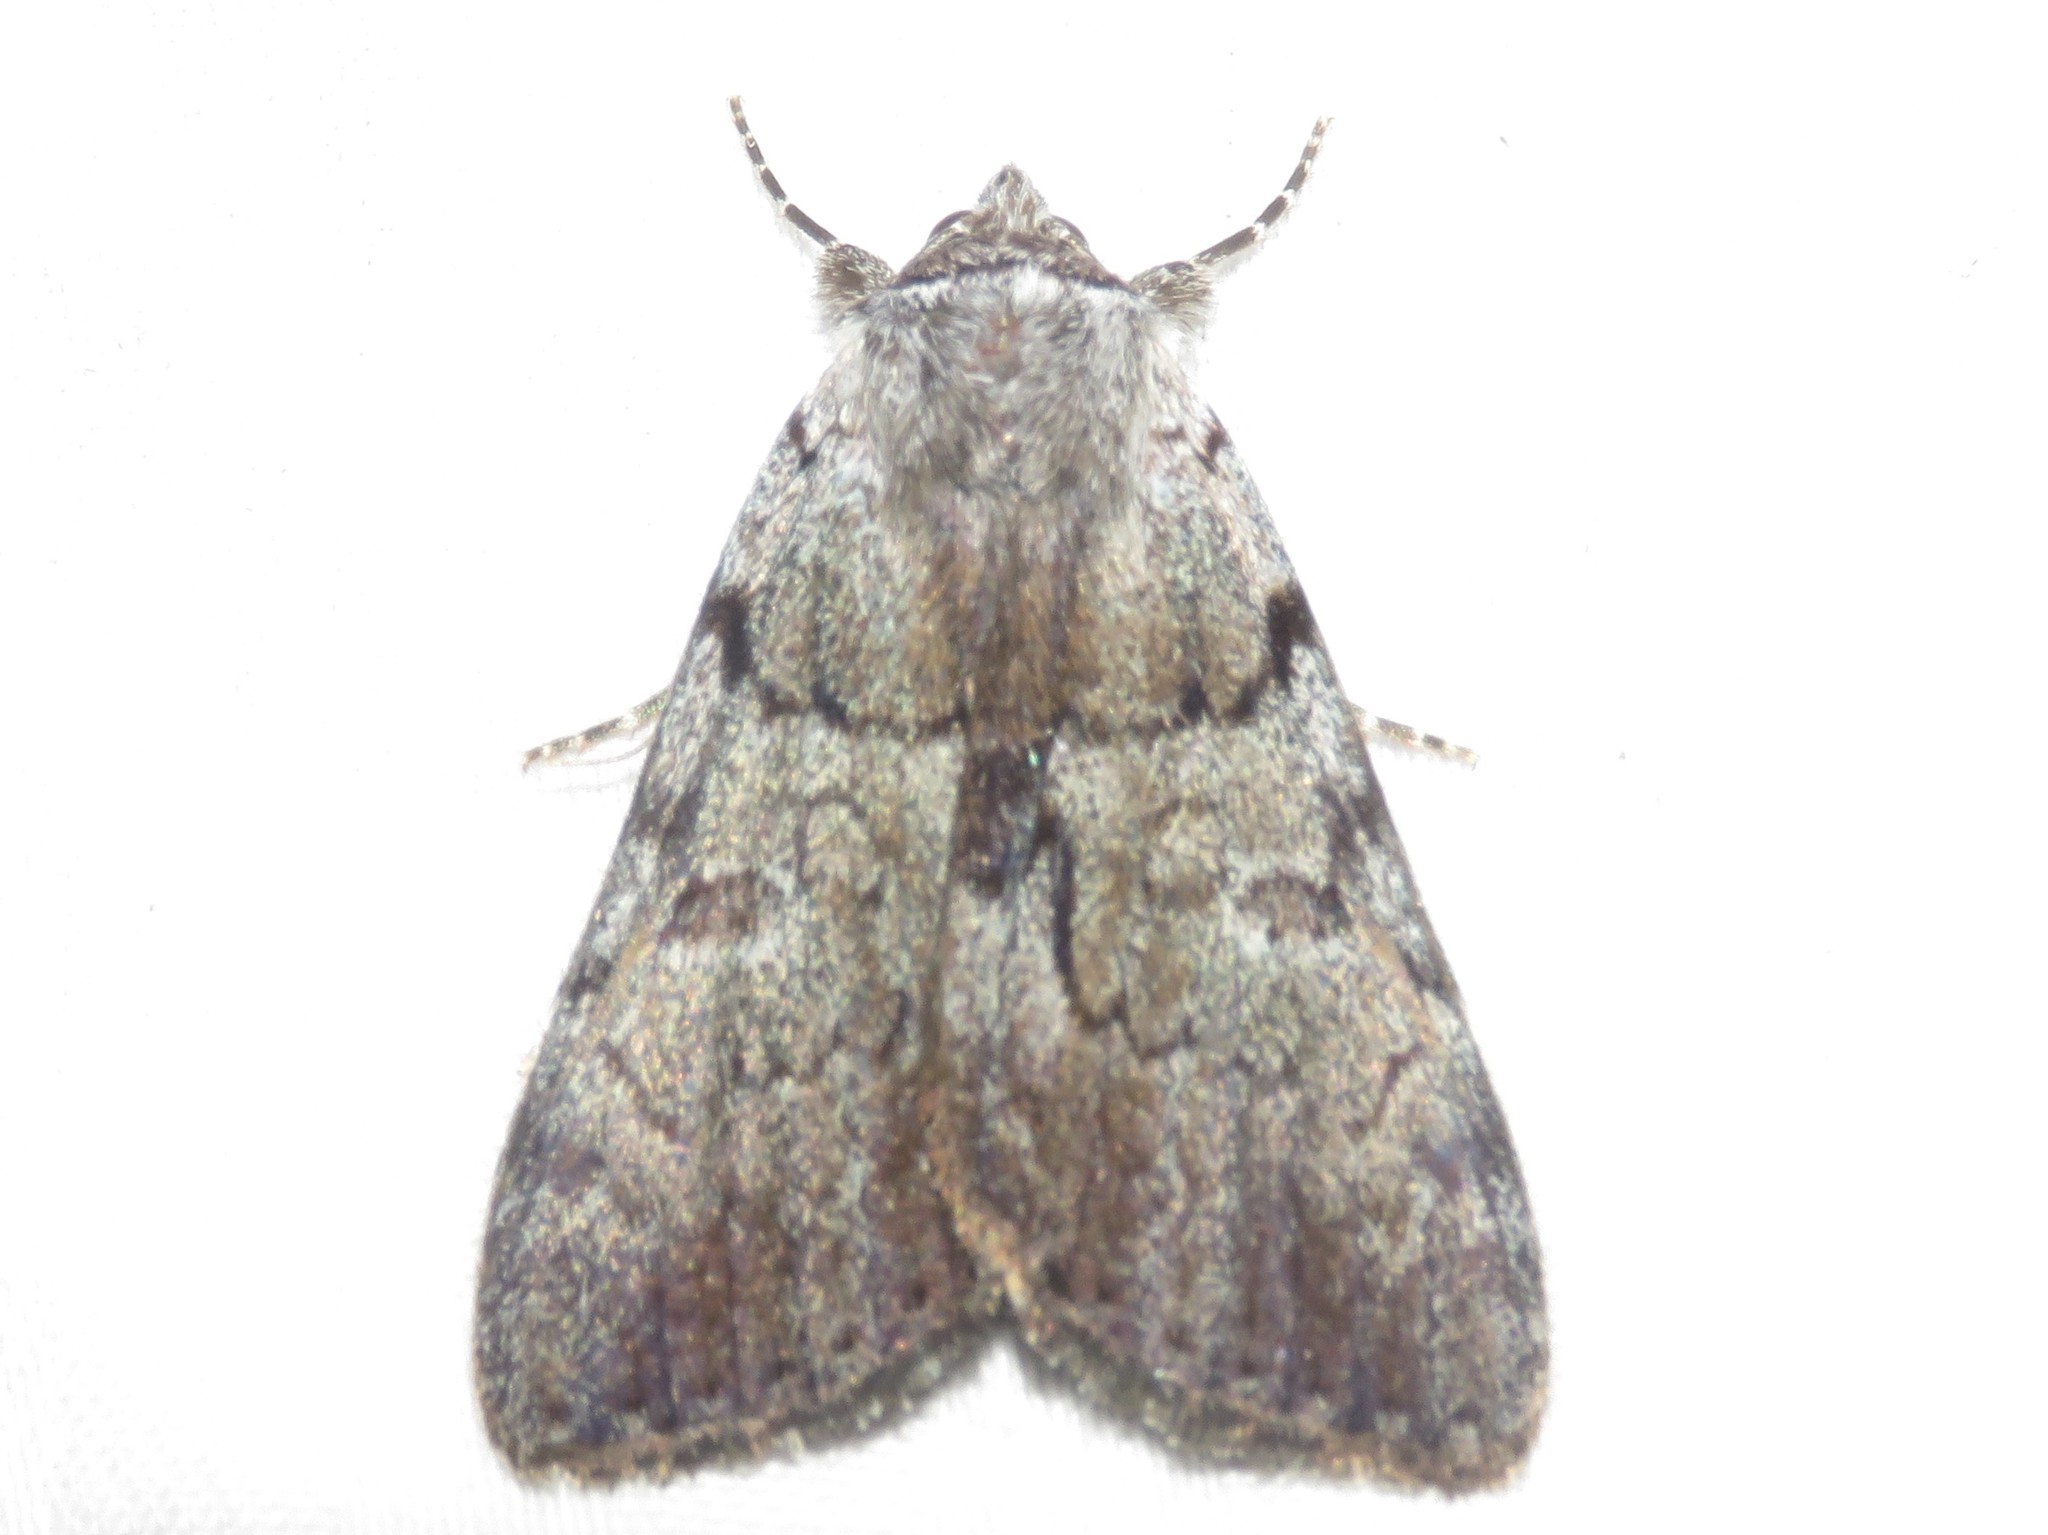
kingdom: Animalia
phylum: Arthropoda
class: Insecta
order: Lepidoptera
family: Erebidae
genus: Catocala
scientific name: Catocala sordida
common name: Sordid underwing
